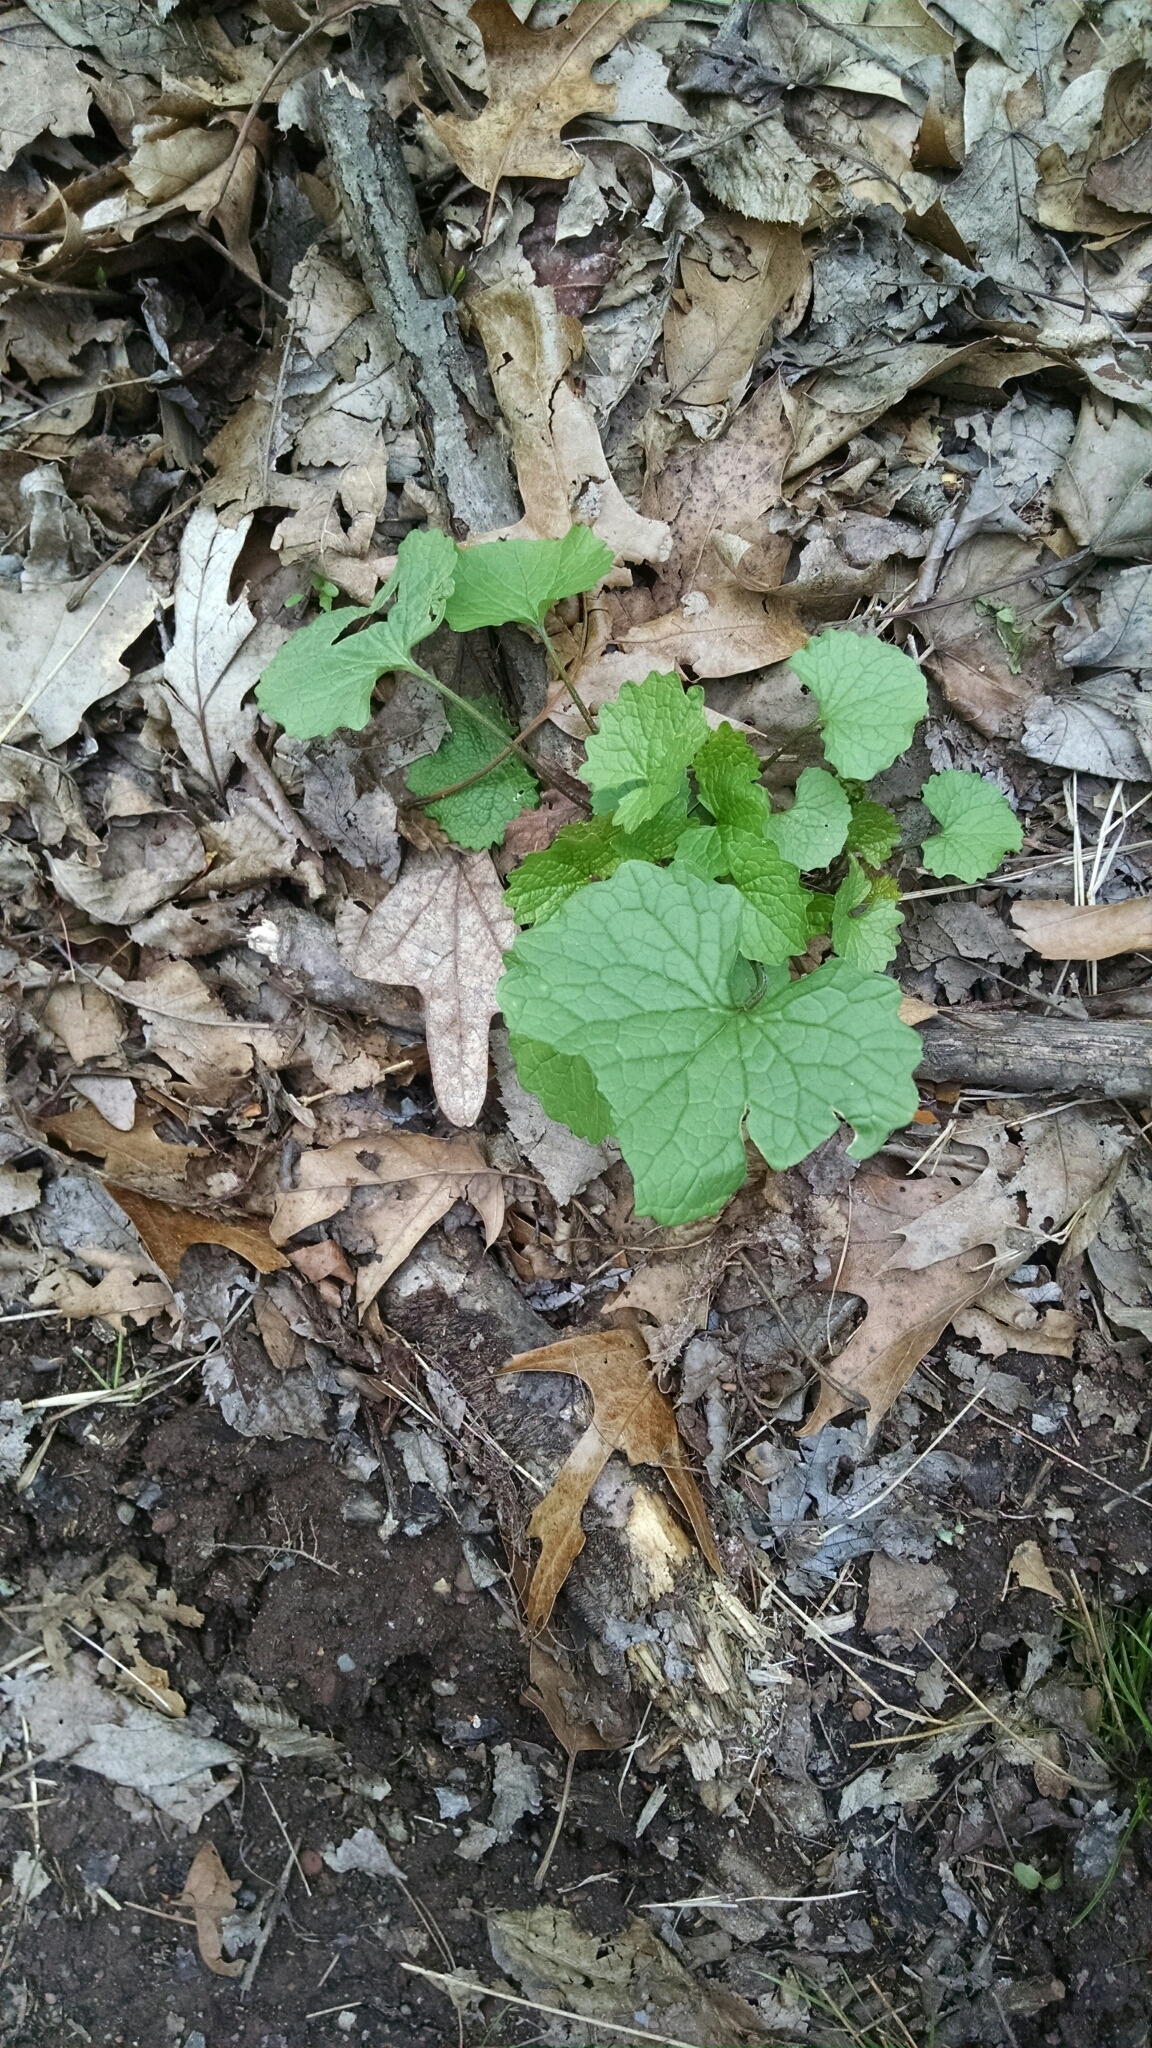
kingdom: Plantae
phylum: Tracheophyta
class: Magnoliopsida
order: Brassicales
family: Brassicaceae
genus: Alliaria
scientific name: Alliaria petiolata
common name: Garlic mustard
